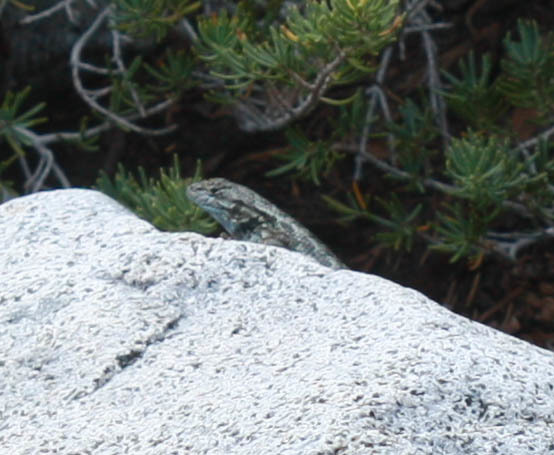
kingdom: Animalia
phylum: Chordata
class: Squamata
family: Phrynosomatidae
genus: Sceloporus
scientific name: Sceloporus occidentalis
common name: Western fence lizard
